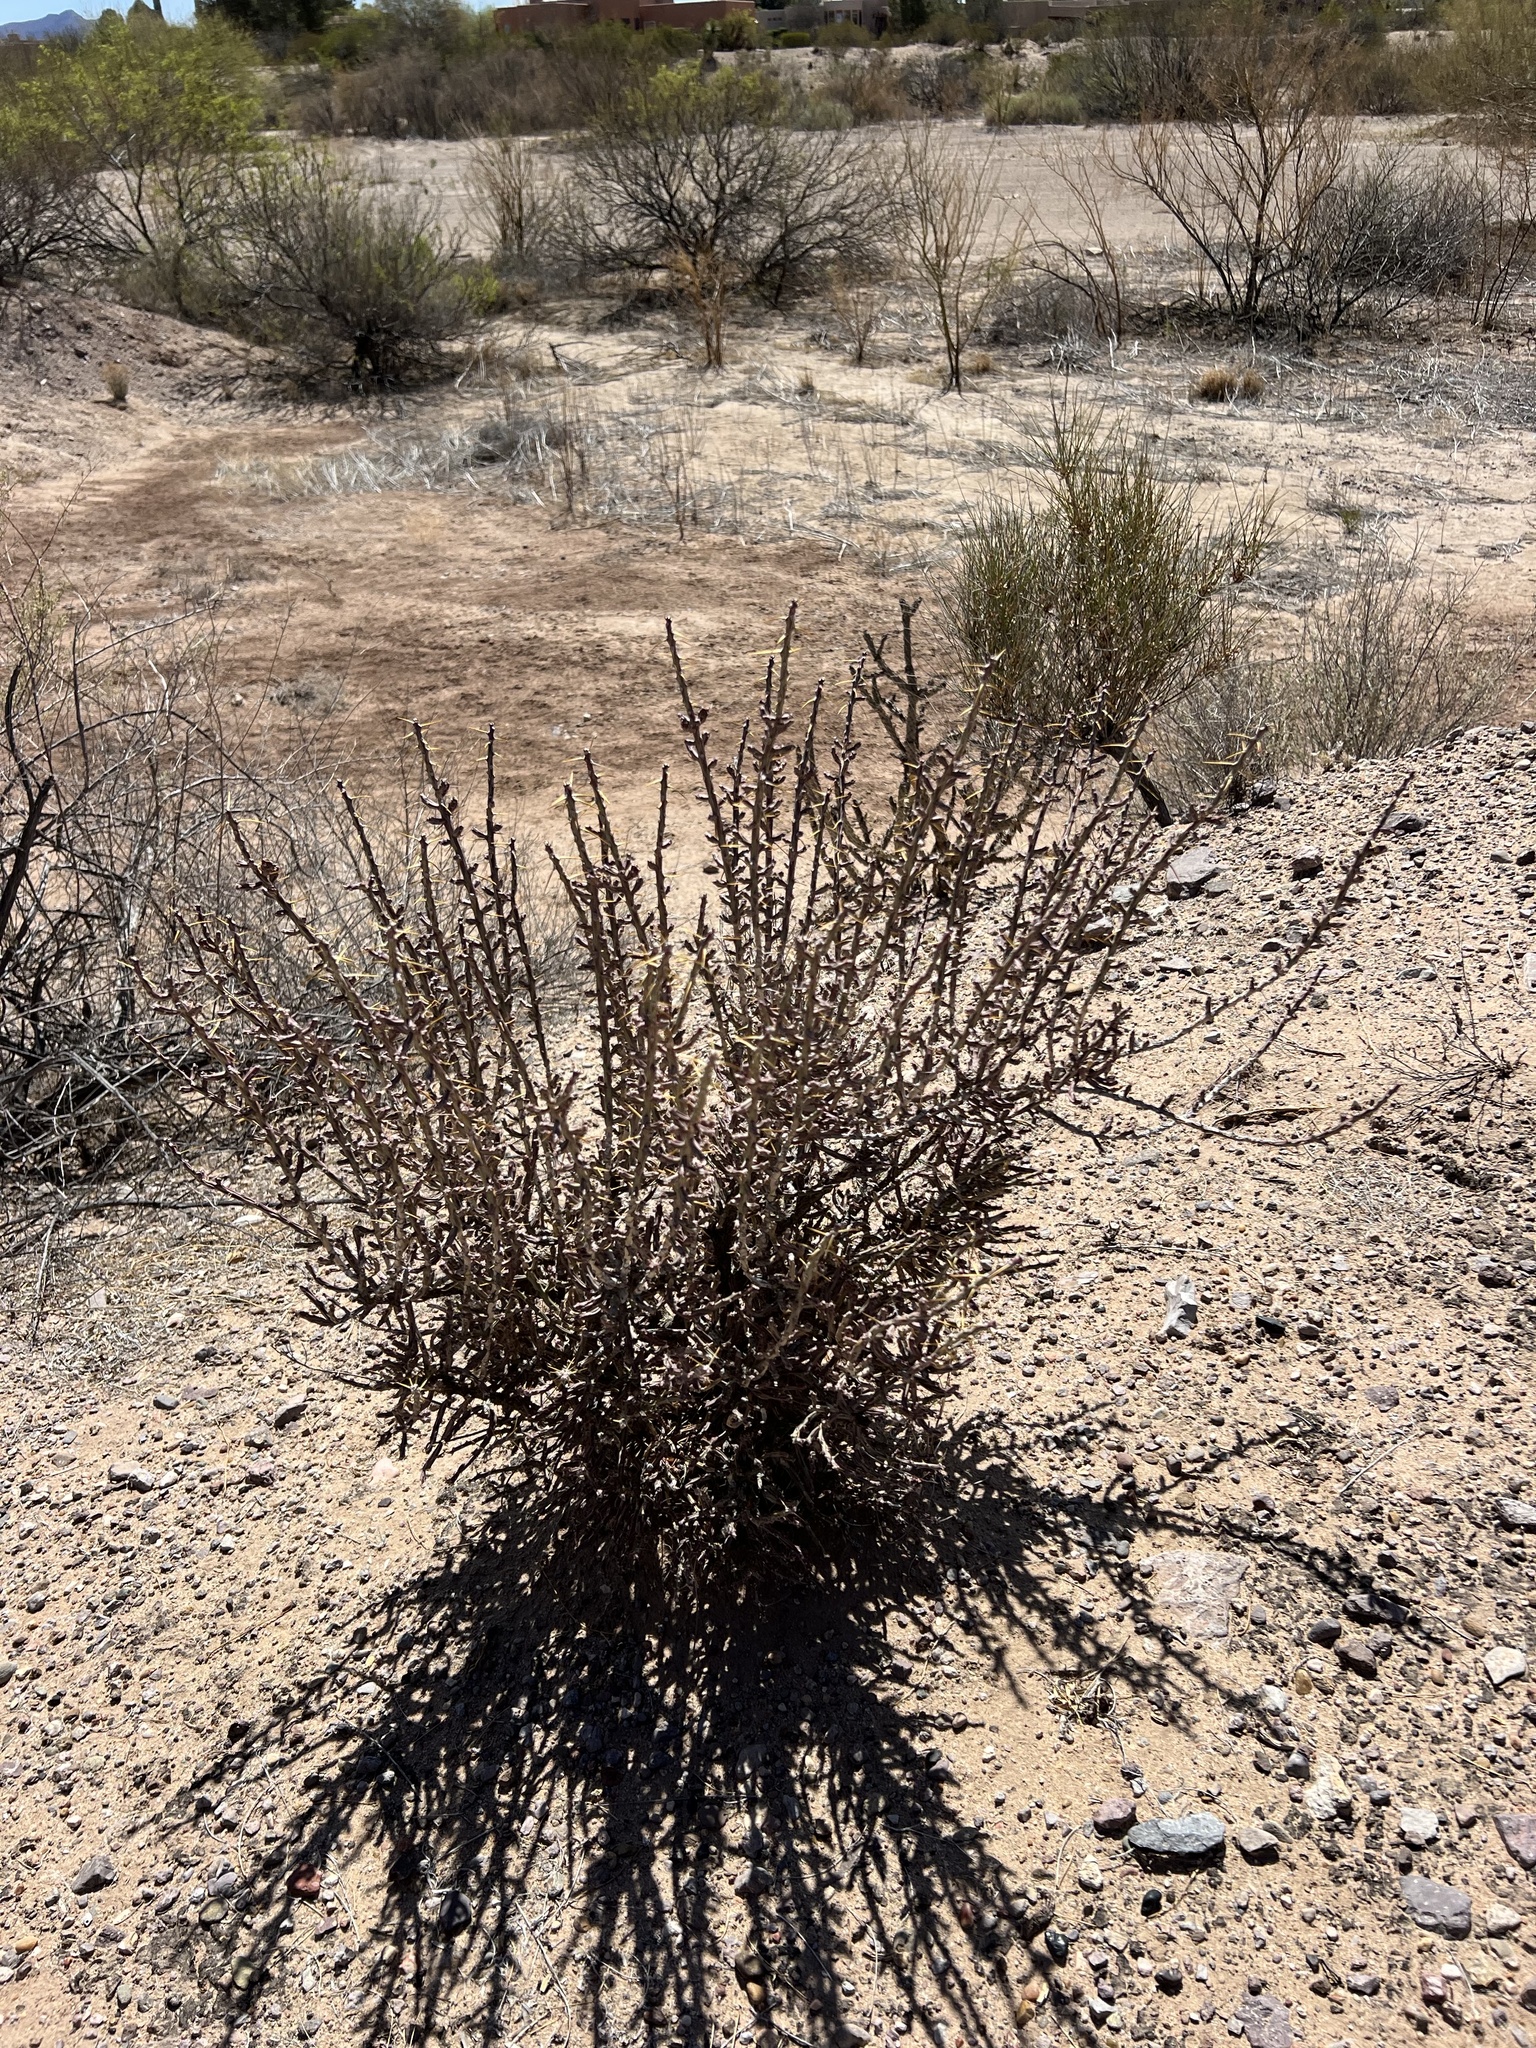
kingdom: Plantae
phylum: Tracheophyta
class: Magnoliopsida
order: Caryophyllales
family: Cactaceae
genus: Cylindropuntia
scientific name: Cylindropuntia leptocaulis
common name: Christmas cactus
